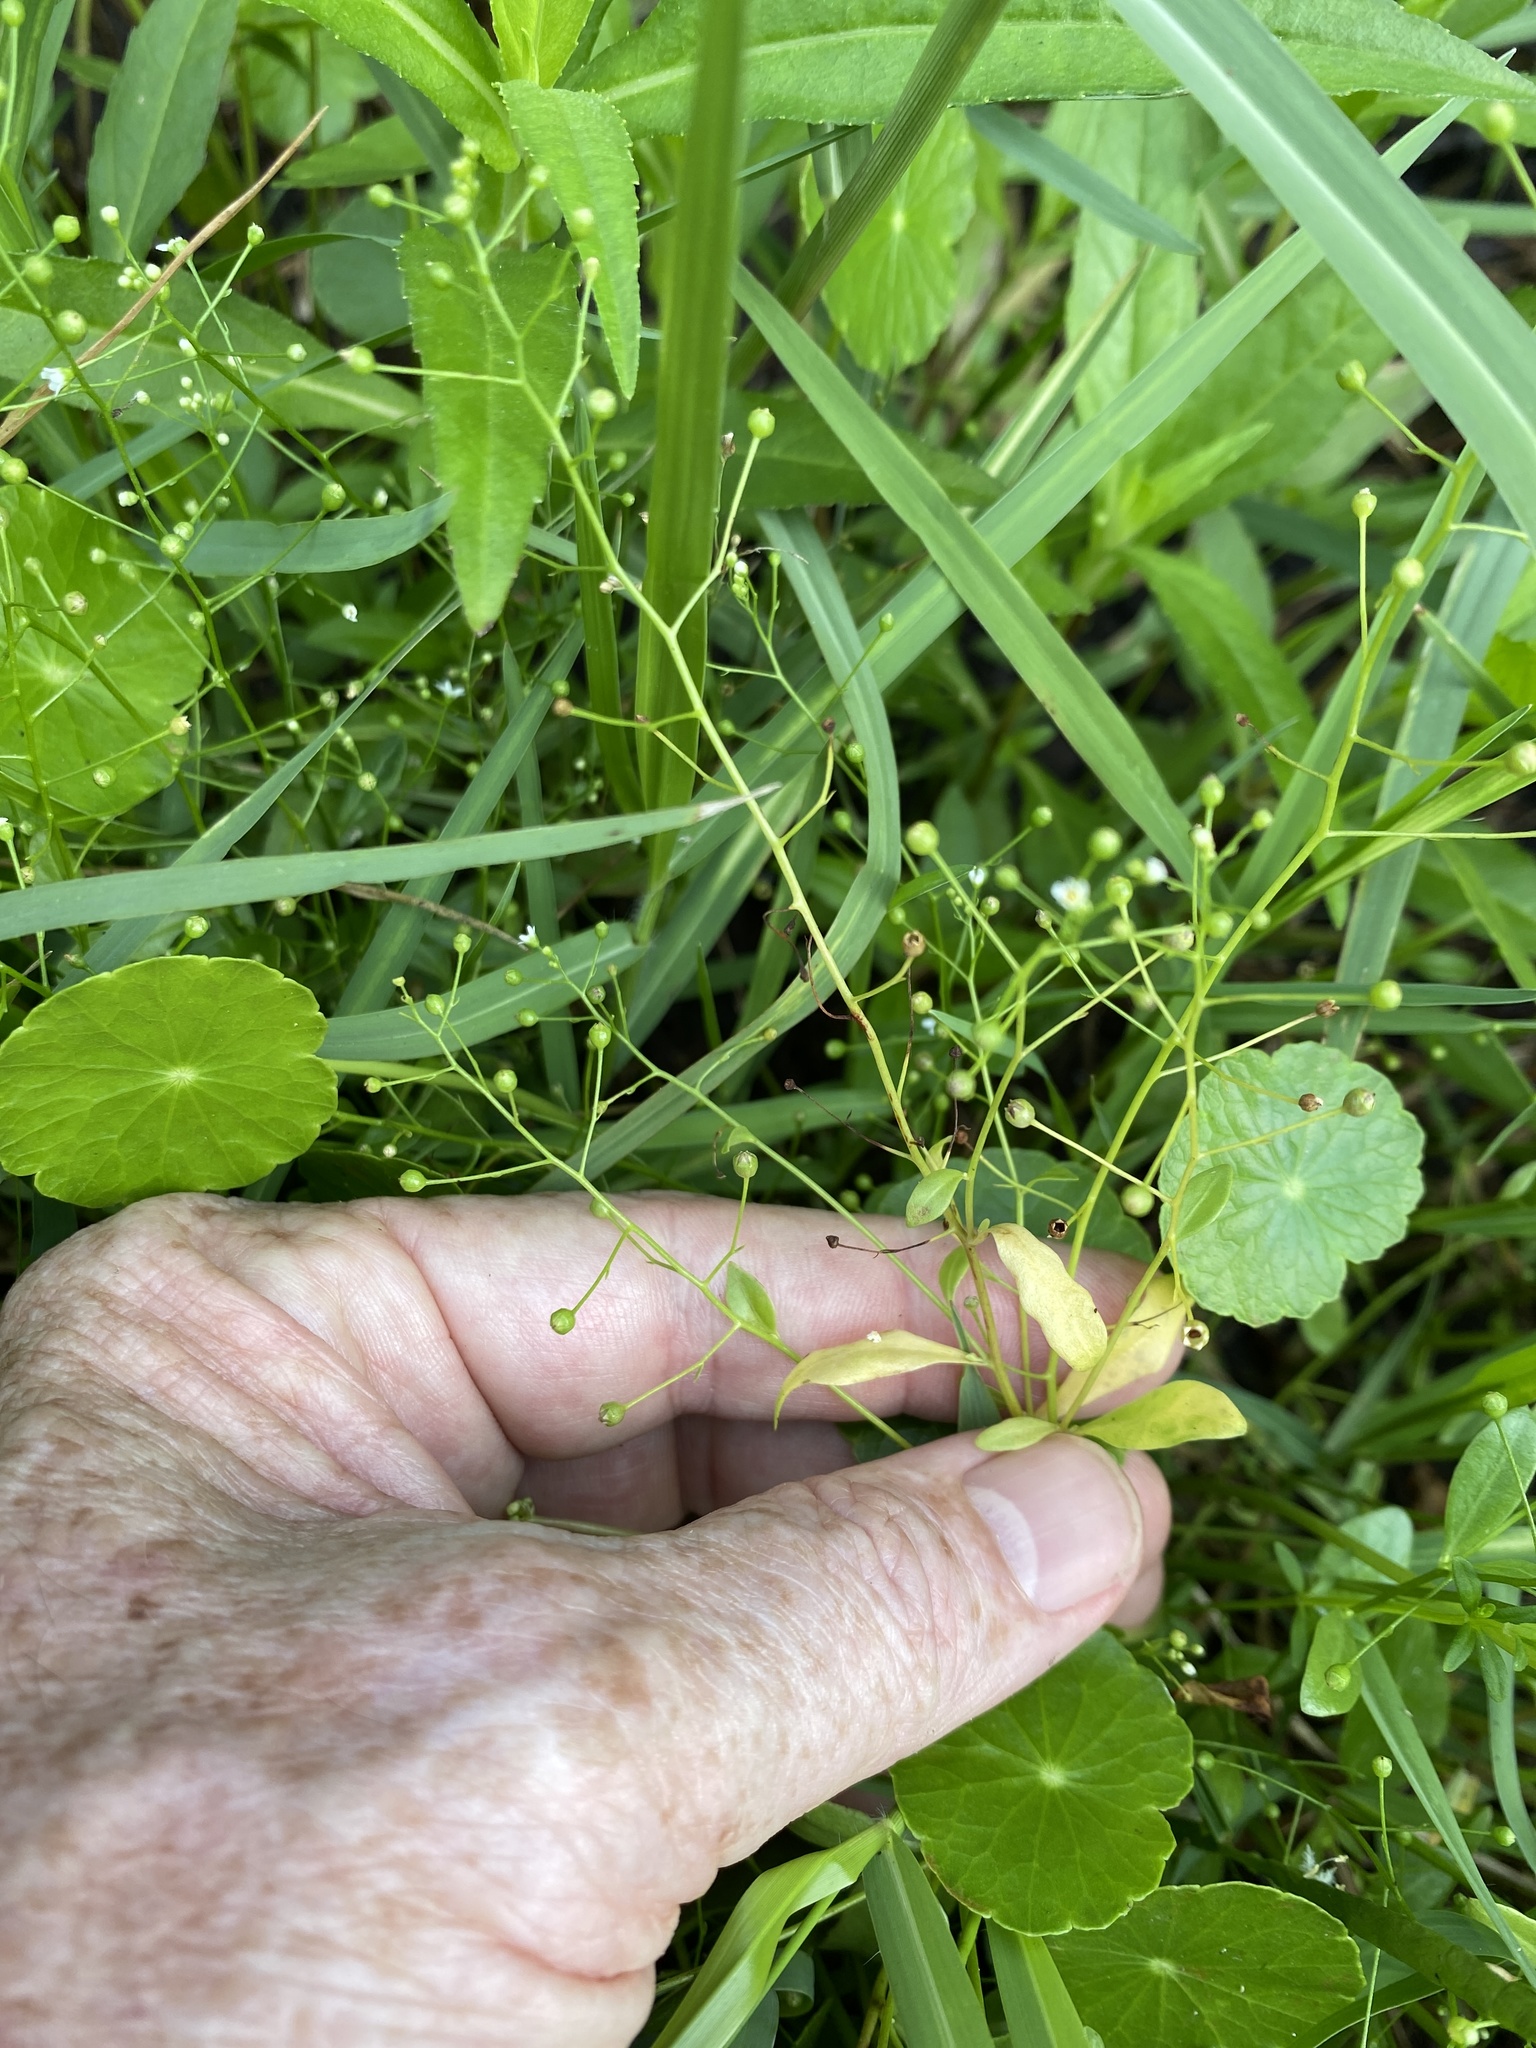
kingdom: Plantae
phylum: Tracheophyta
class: Magnoliopsida
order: Ericales
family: Primulaceae
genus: Samolus
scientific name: Samolus parviflorus
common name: False water pimpernel
